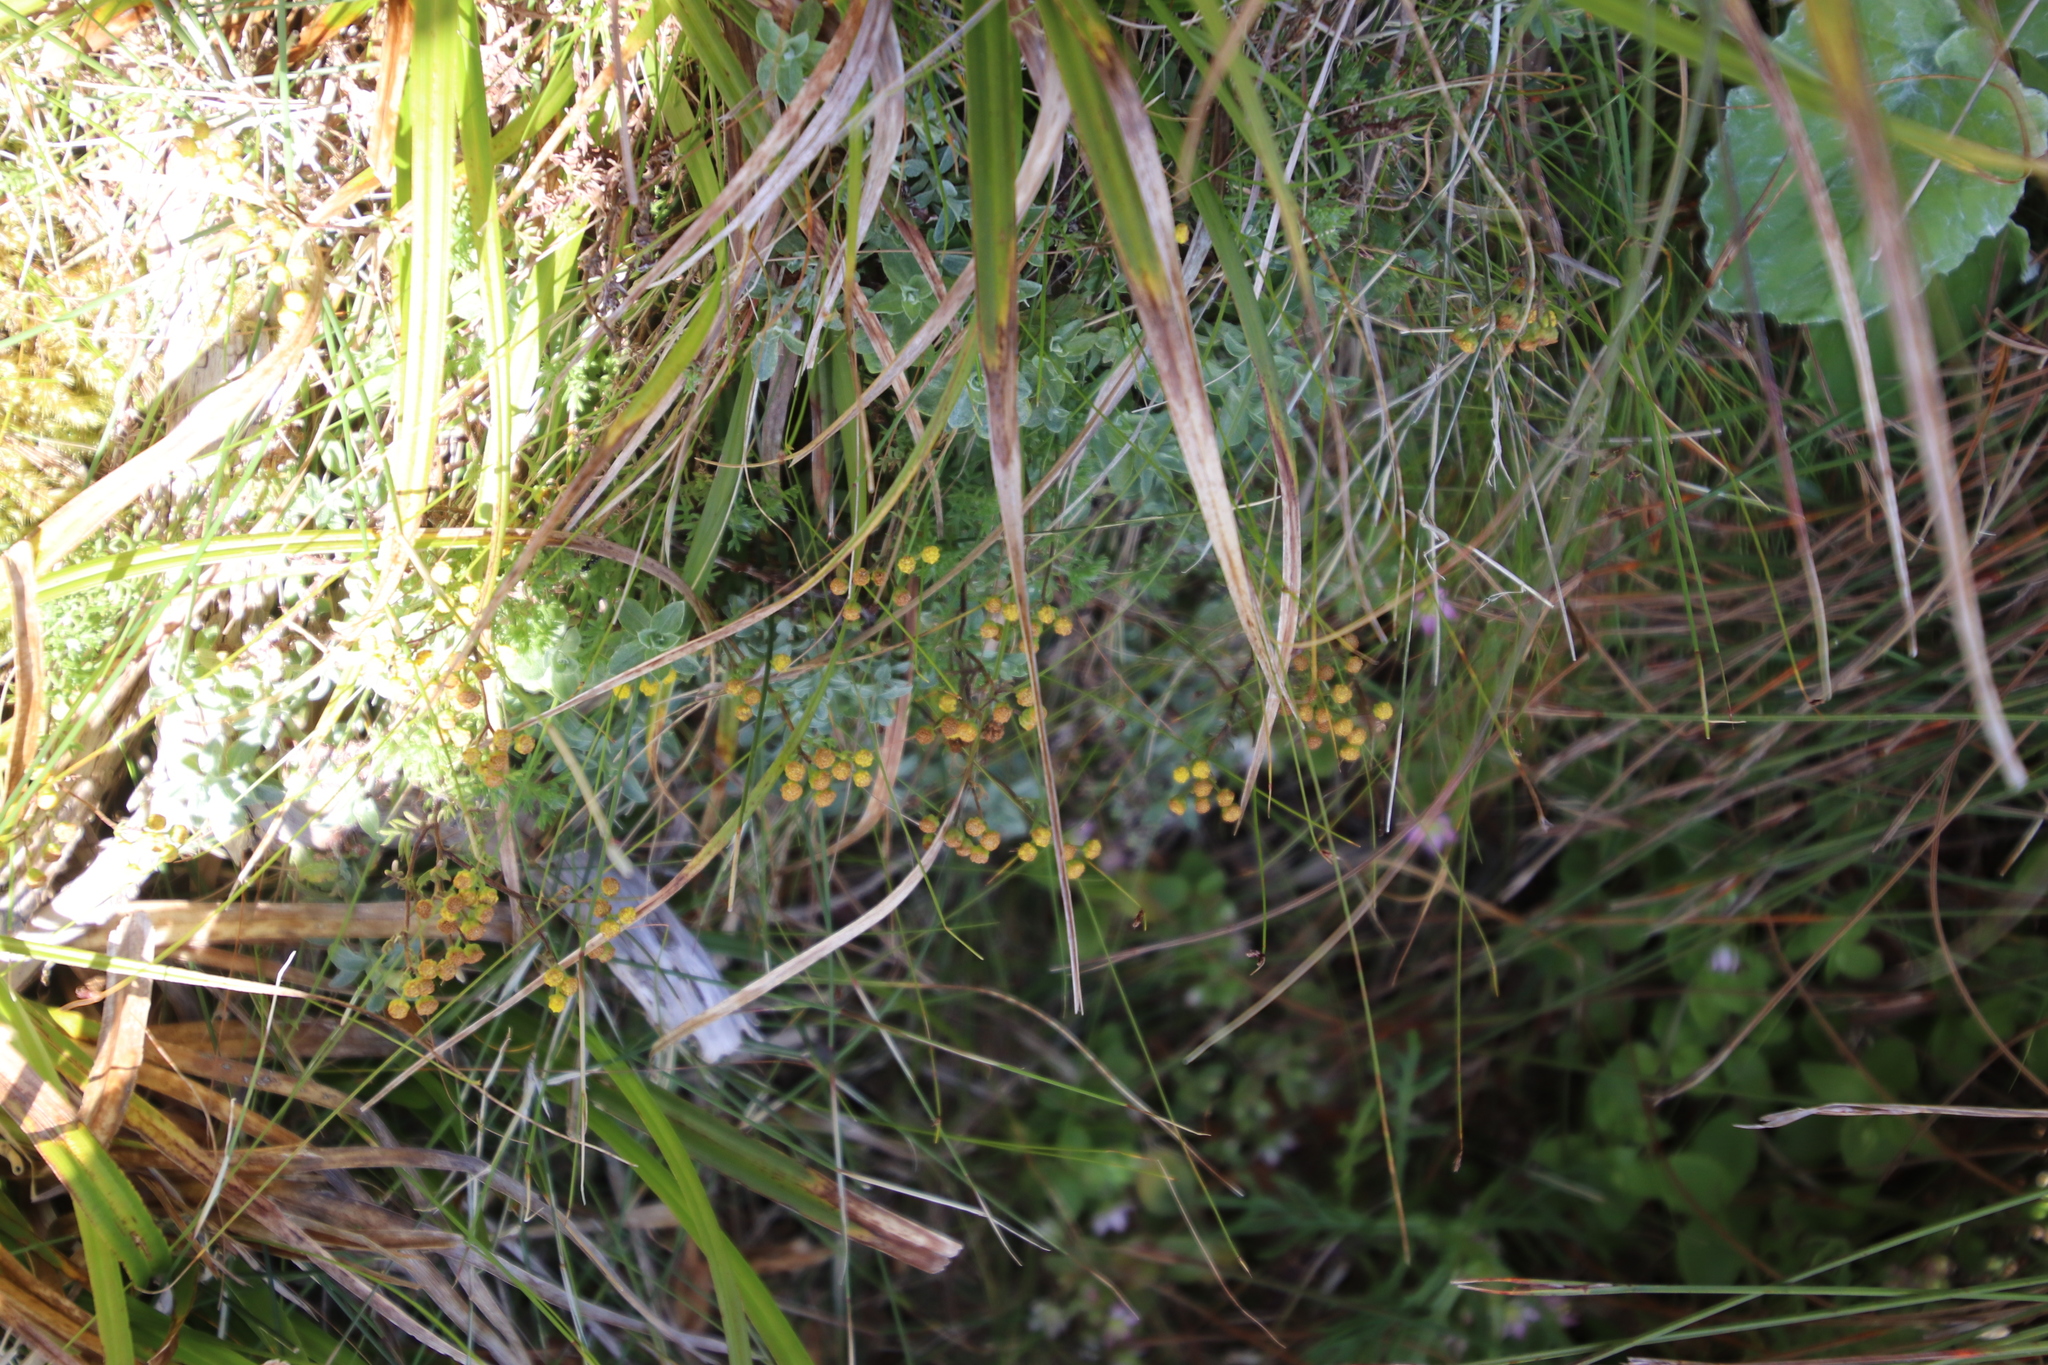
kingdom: Plantae
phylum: Tracheophyta
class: Magnoliopsida
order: Asterales
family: Asteraceae
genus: Hippia
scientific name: Hippia pilosa
